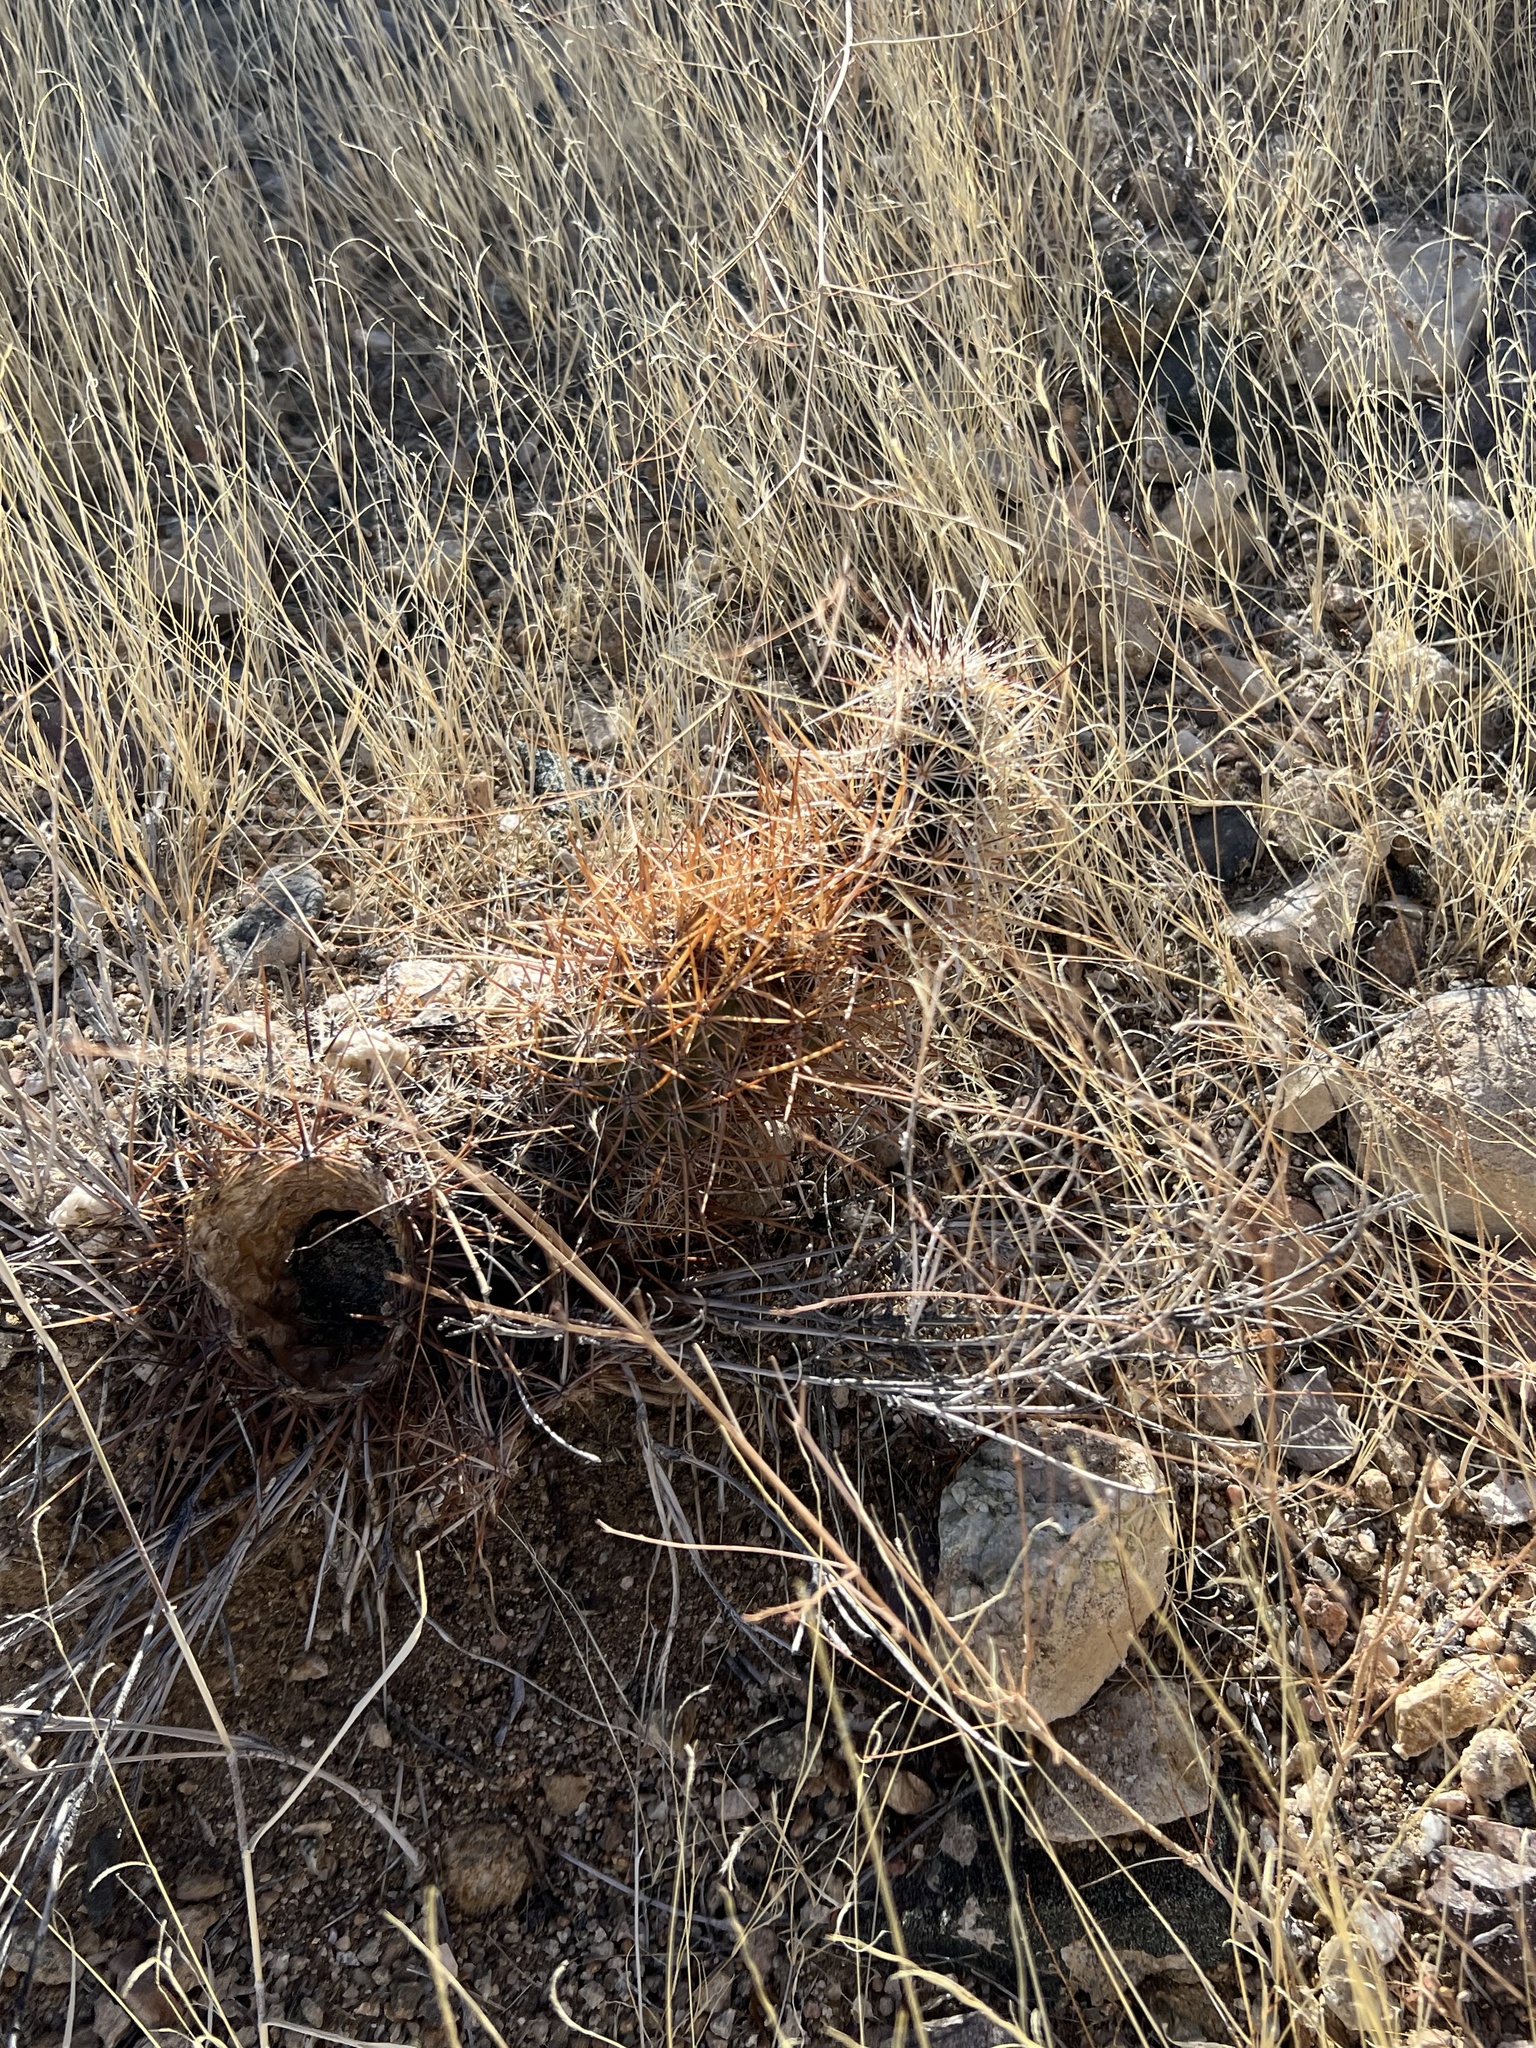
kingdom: Plantae
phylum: Tracheophyta
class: Magnoliopsida
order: Caryophyllales
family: Cactaceae
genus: Echinocereus
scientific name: Echinocereus engelmannii
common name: Engelmann's hedgehog cactus
